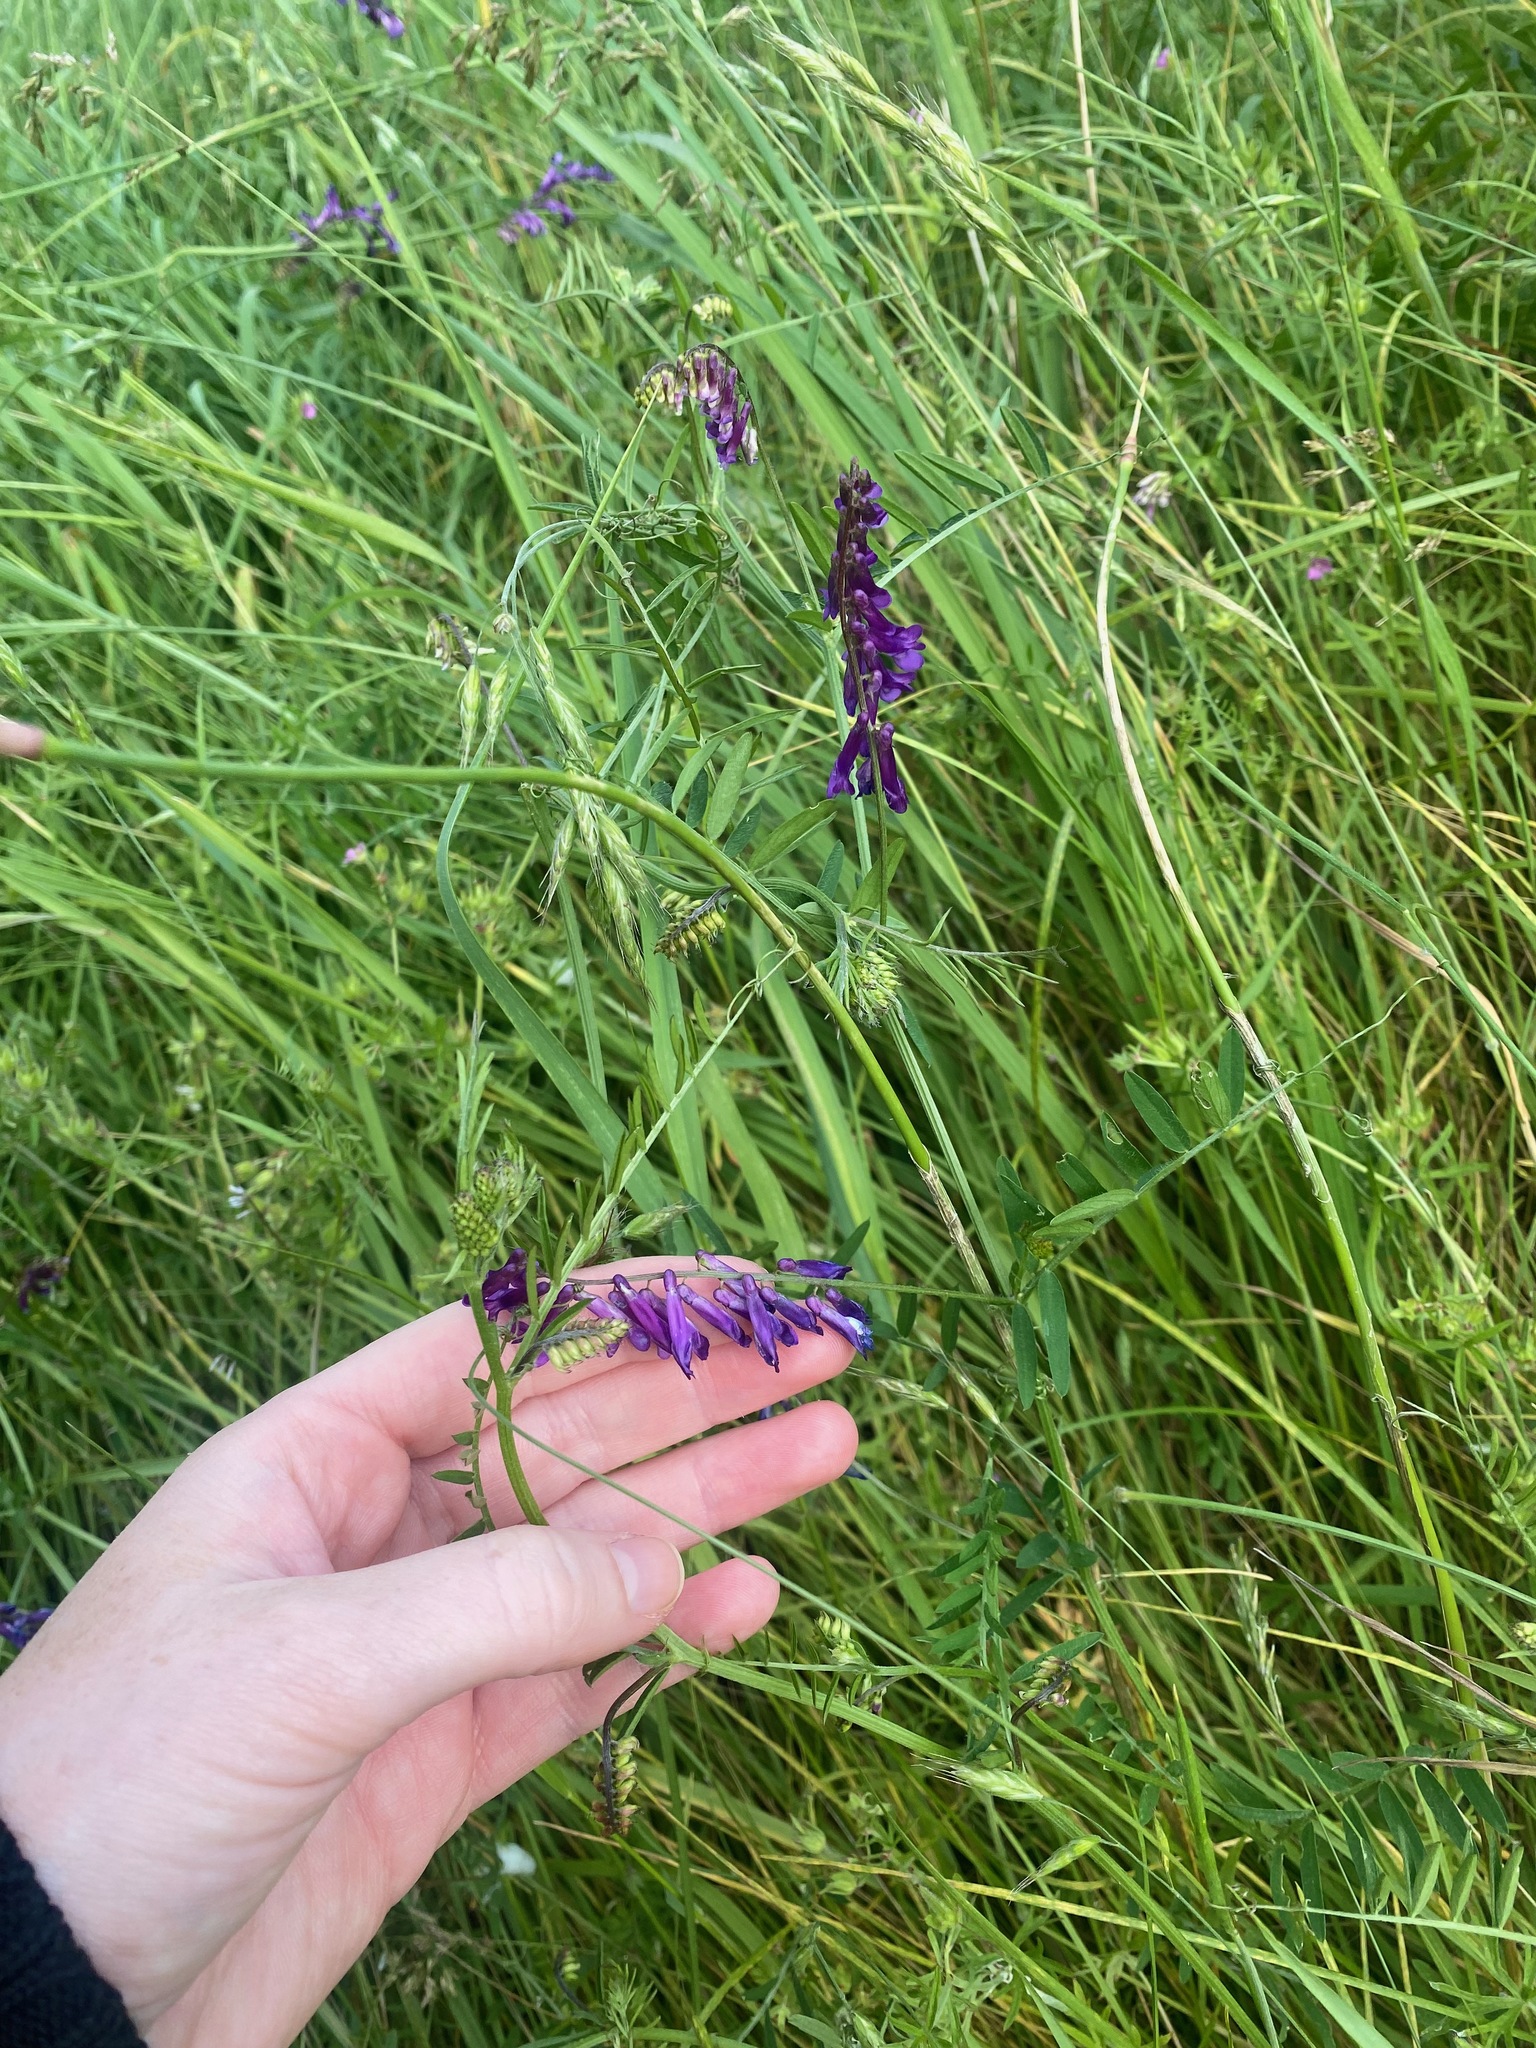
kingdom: Plantae
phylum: Tracheophyta
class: Magnoliopsida
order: Fabales
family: Fabaceae
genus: Vicia
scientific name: Vicia villosa
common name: Fodder vetch
